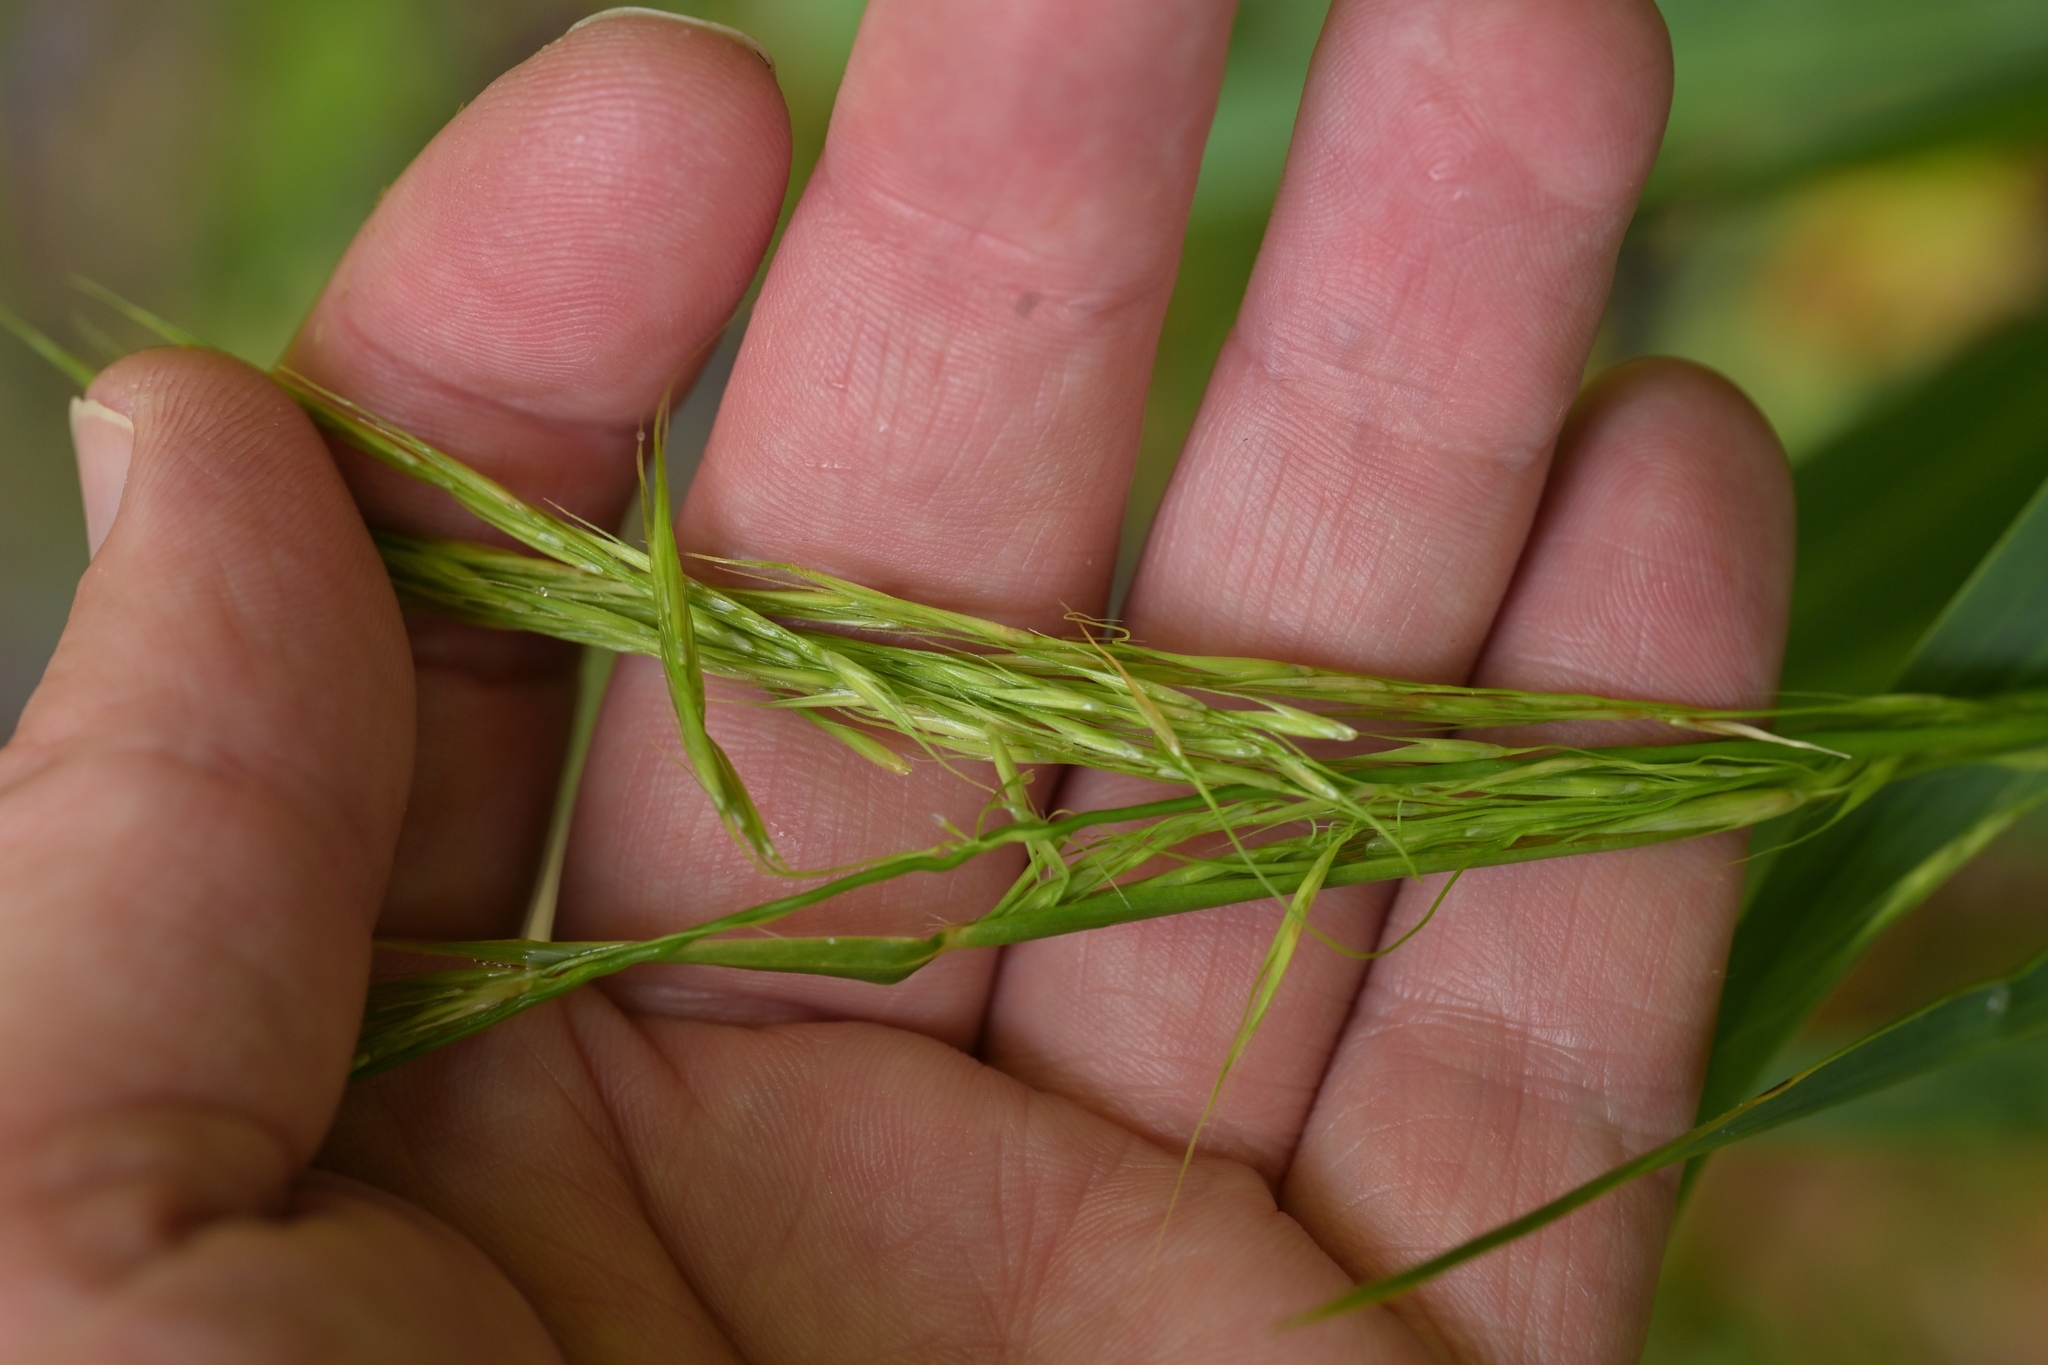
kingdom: Plantae
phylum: Tracheophyta
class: Liliopsida
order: Poales
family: Poaceae
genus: Ehrharta
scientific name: Ehrharta diplax
